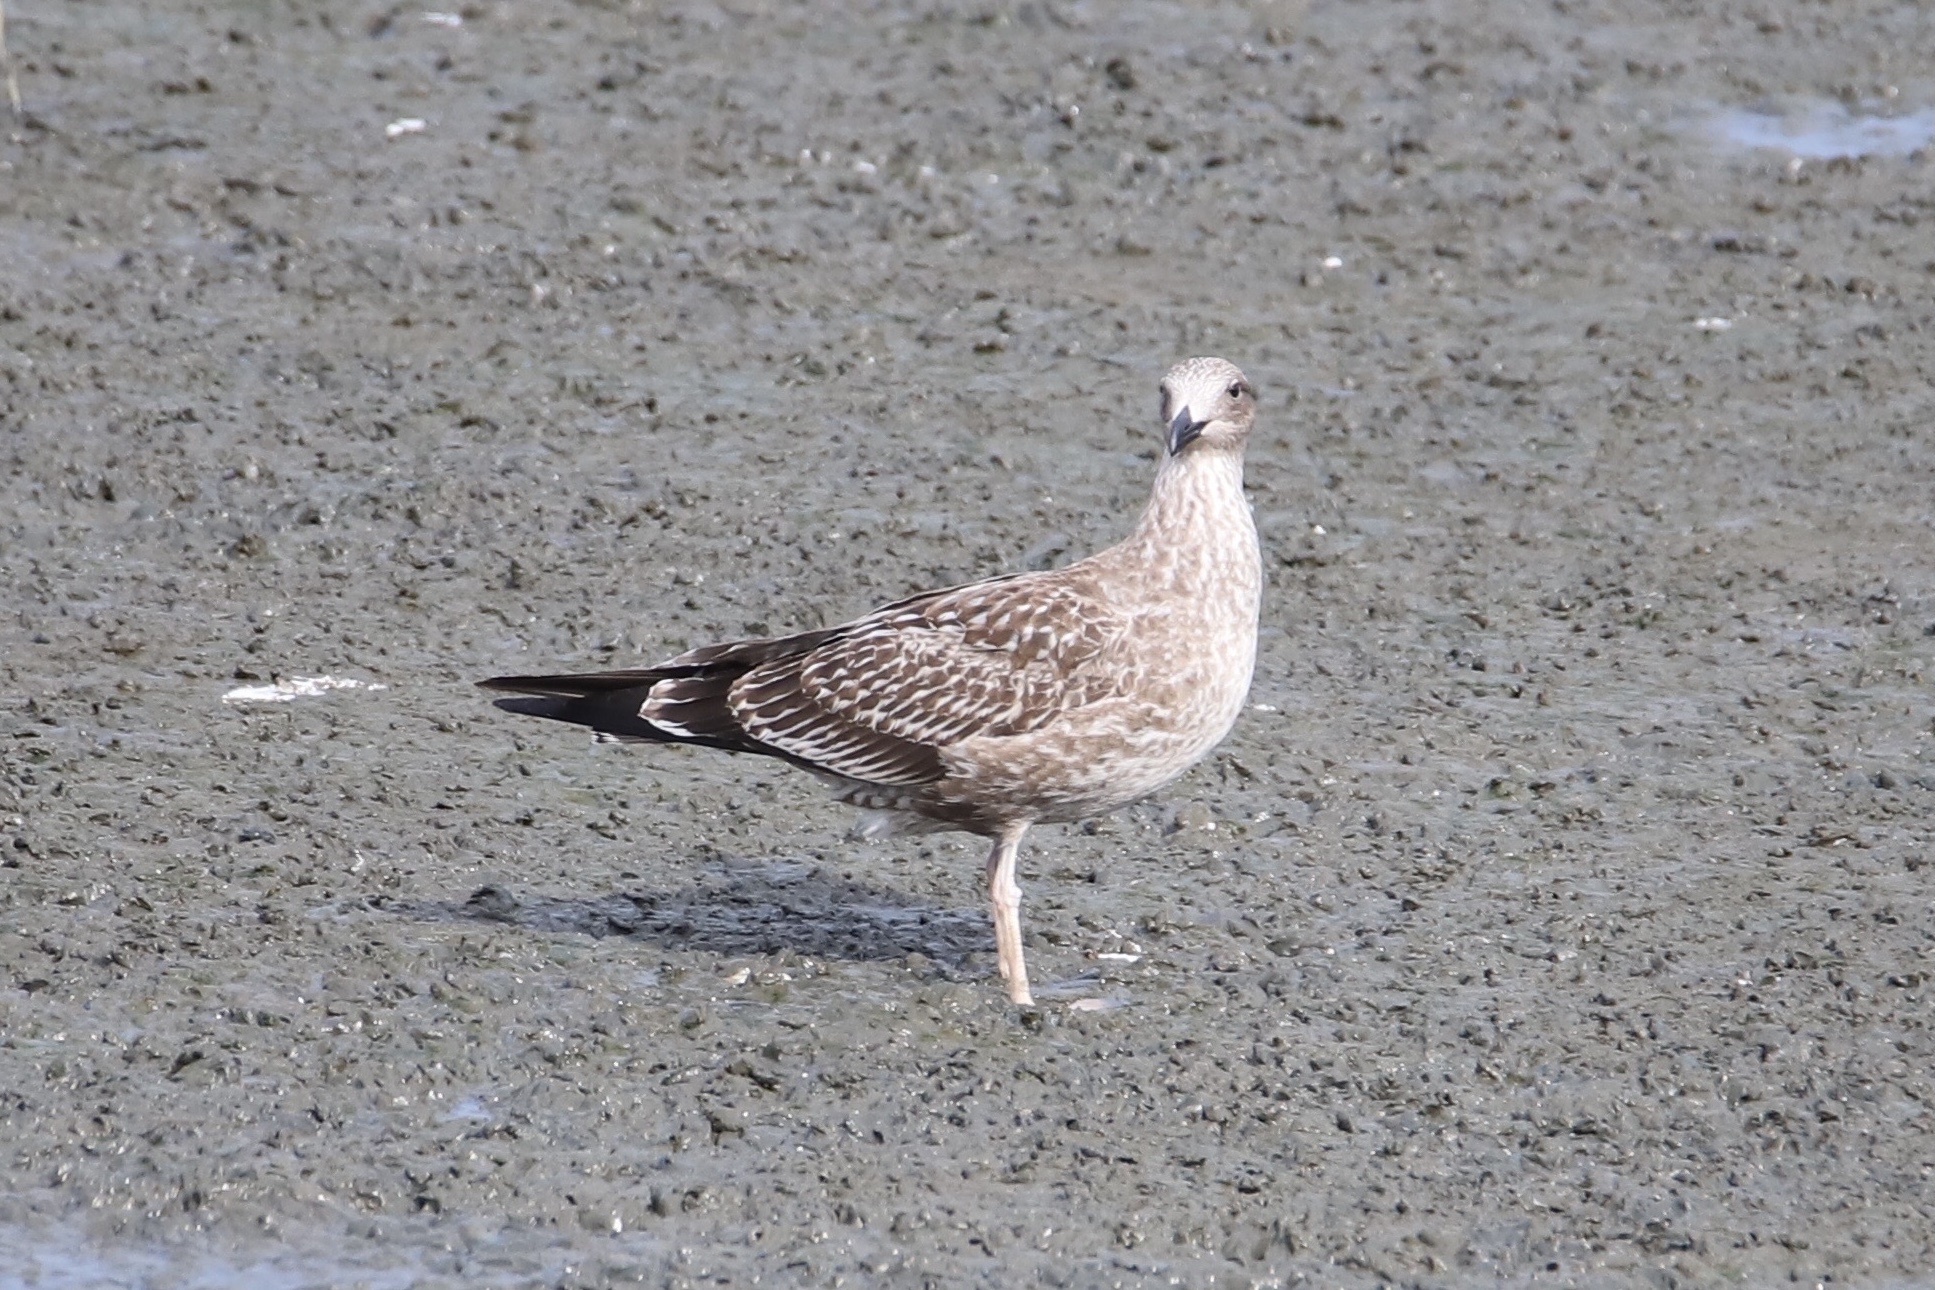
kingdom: Animalia
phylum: Chordata
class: Aves
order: Charadriiformes
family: Laridae
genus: Larus
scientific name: Larus fuscus
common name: Lesser black-backed gull
